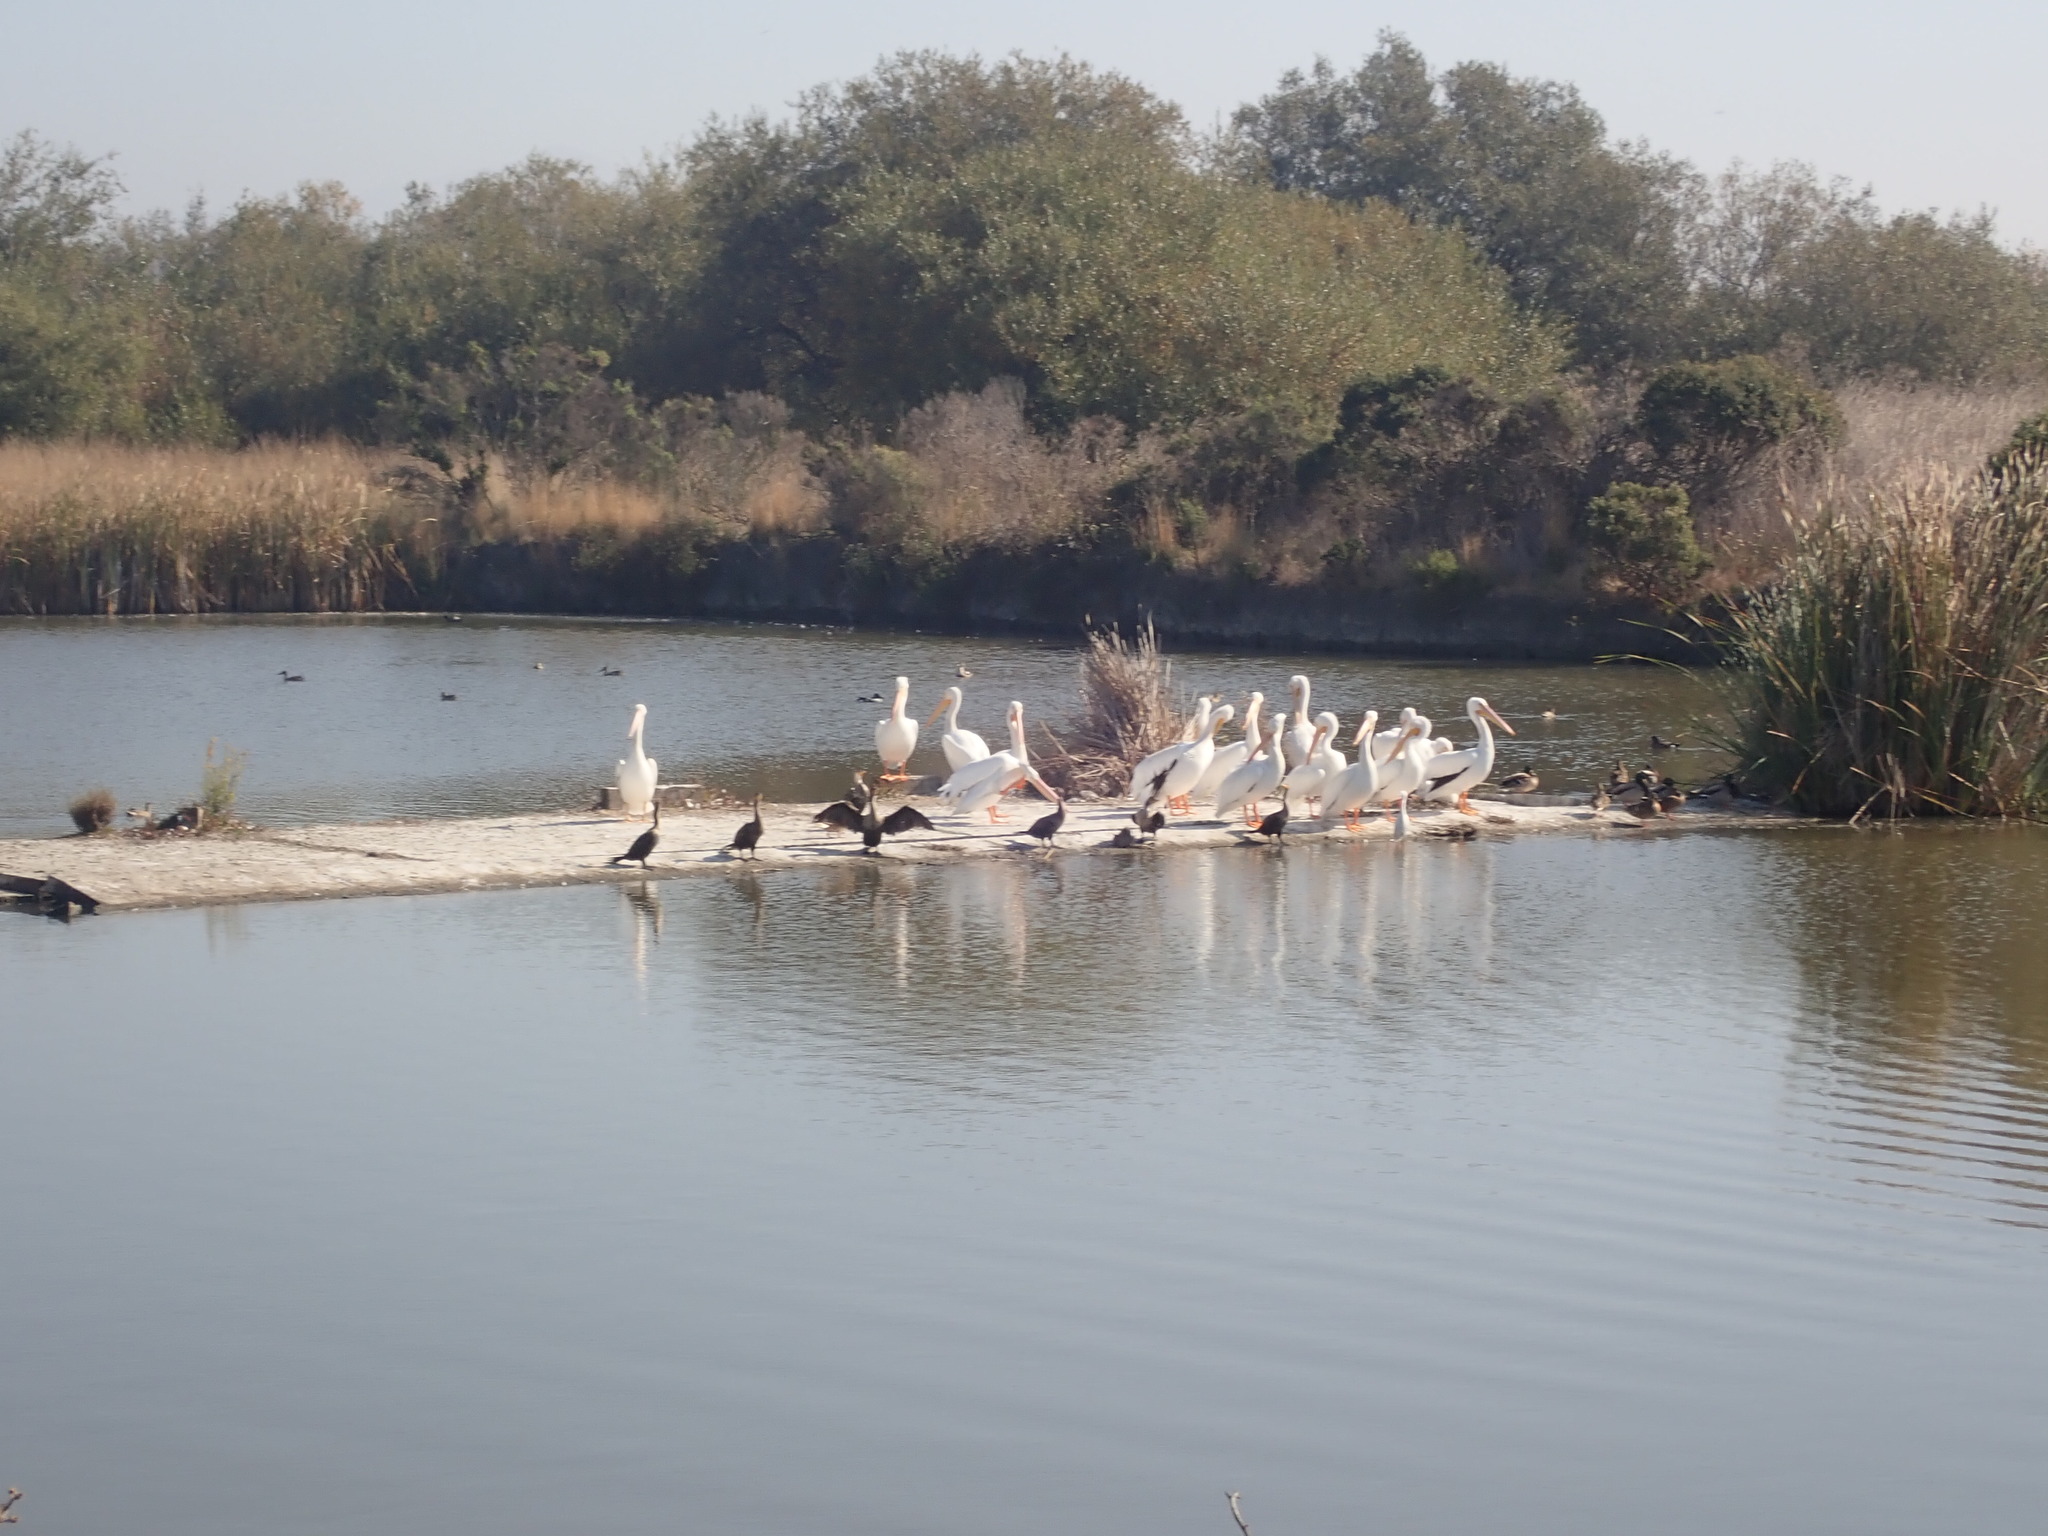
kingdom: Animalia
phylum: Chordata
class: Aves
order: Pelecaniformes
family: Pelecanidae
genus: Pelecanus
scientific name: Pelecanus erythrorhynchos
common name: American white pelican
